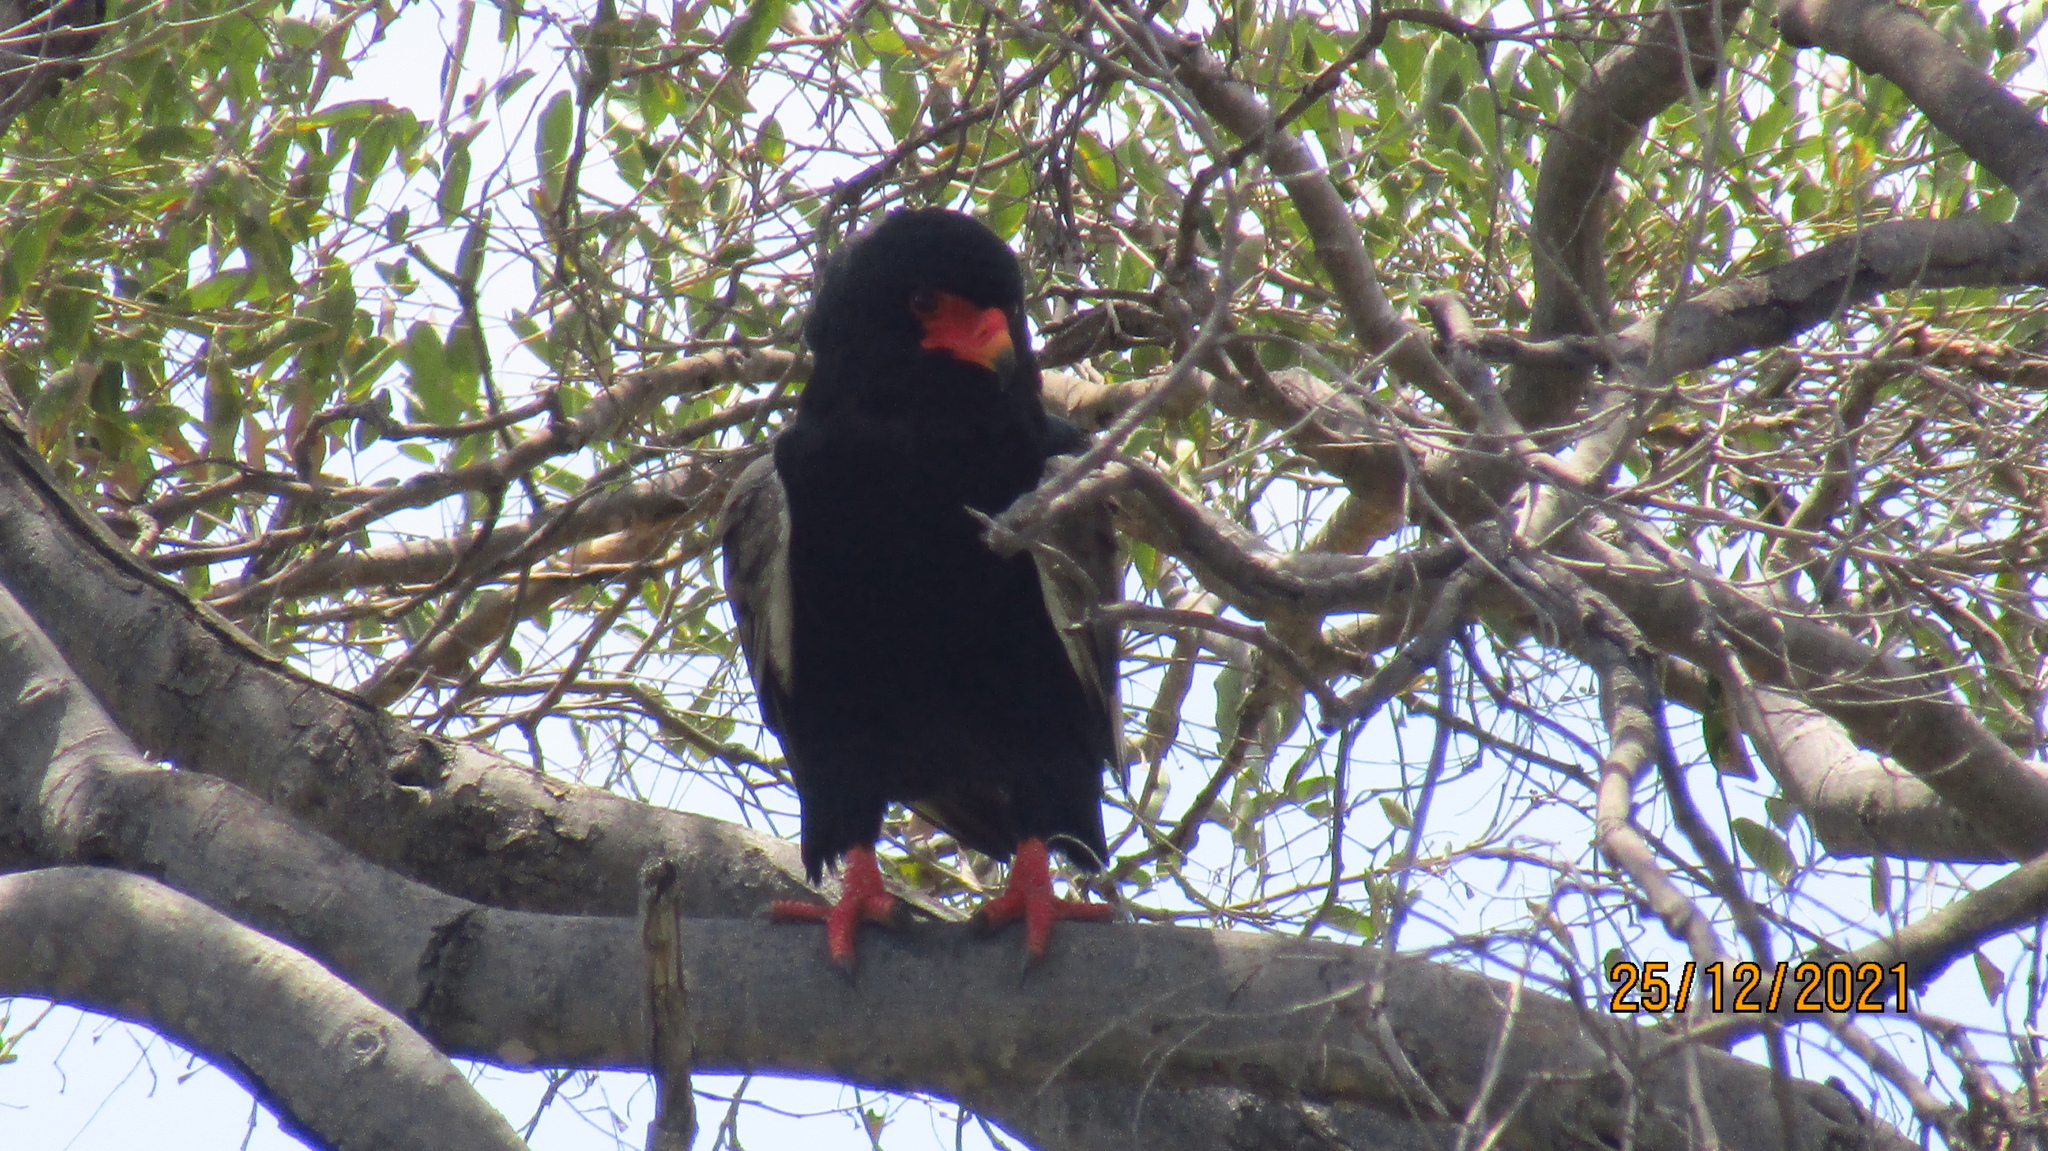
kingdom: Animalia
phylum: Chordata
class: Aves
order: Accipitriformes
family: Accipitridae
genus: Terathopius
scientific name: Terathopius ecaudatus
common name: Bateleur
